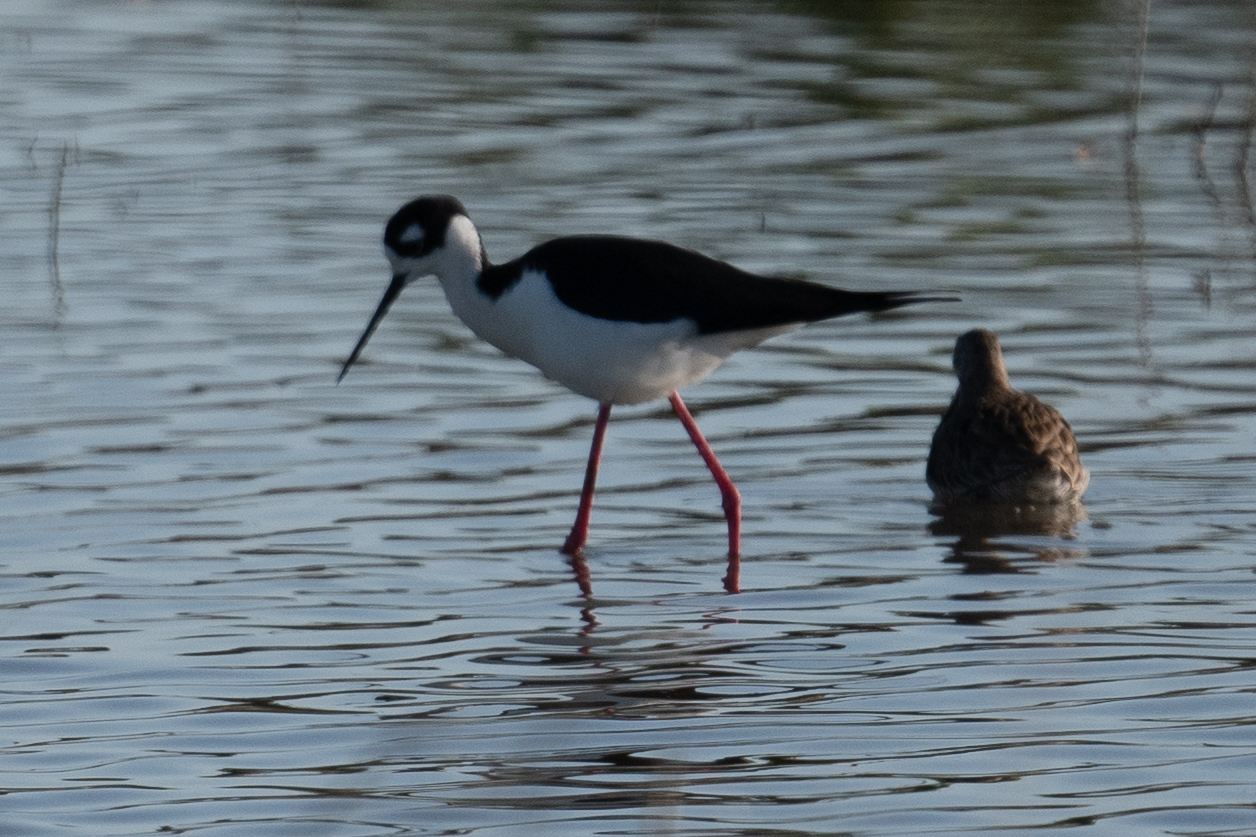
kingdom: Animalia
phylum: Chordata
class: Aves
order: Charadriiformes
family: Recurvirostridae
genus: Himantopus
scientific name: Himantopus mexicanus
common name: Black-necked stilt
